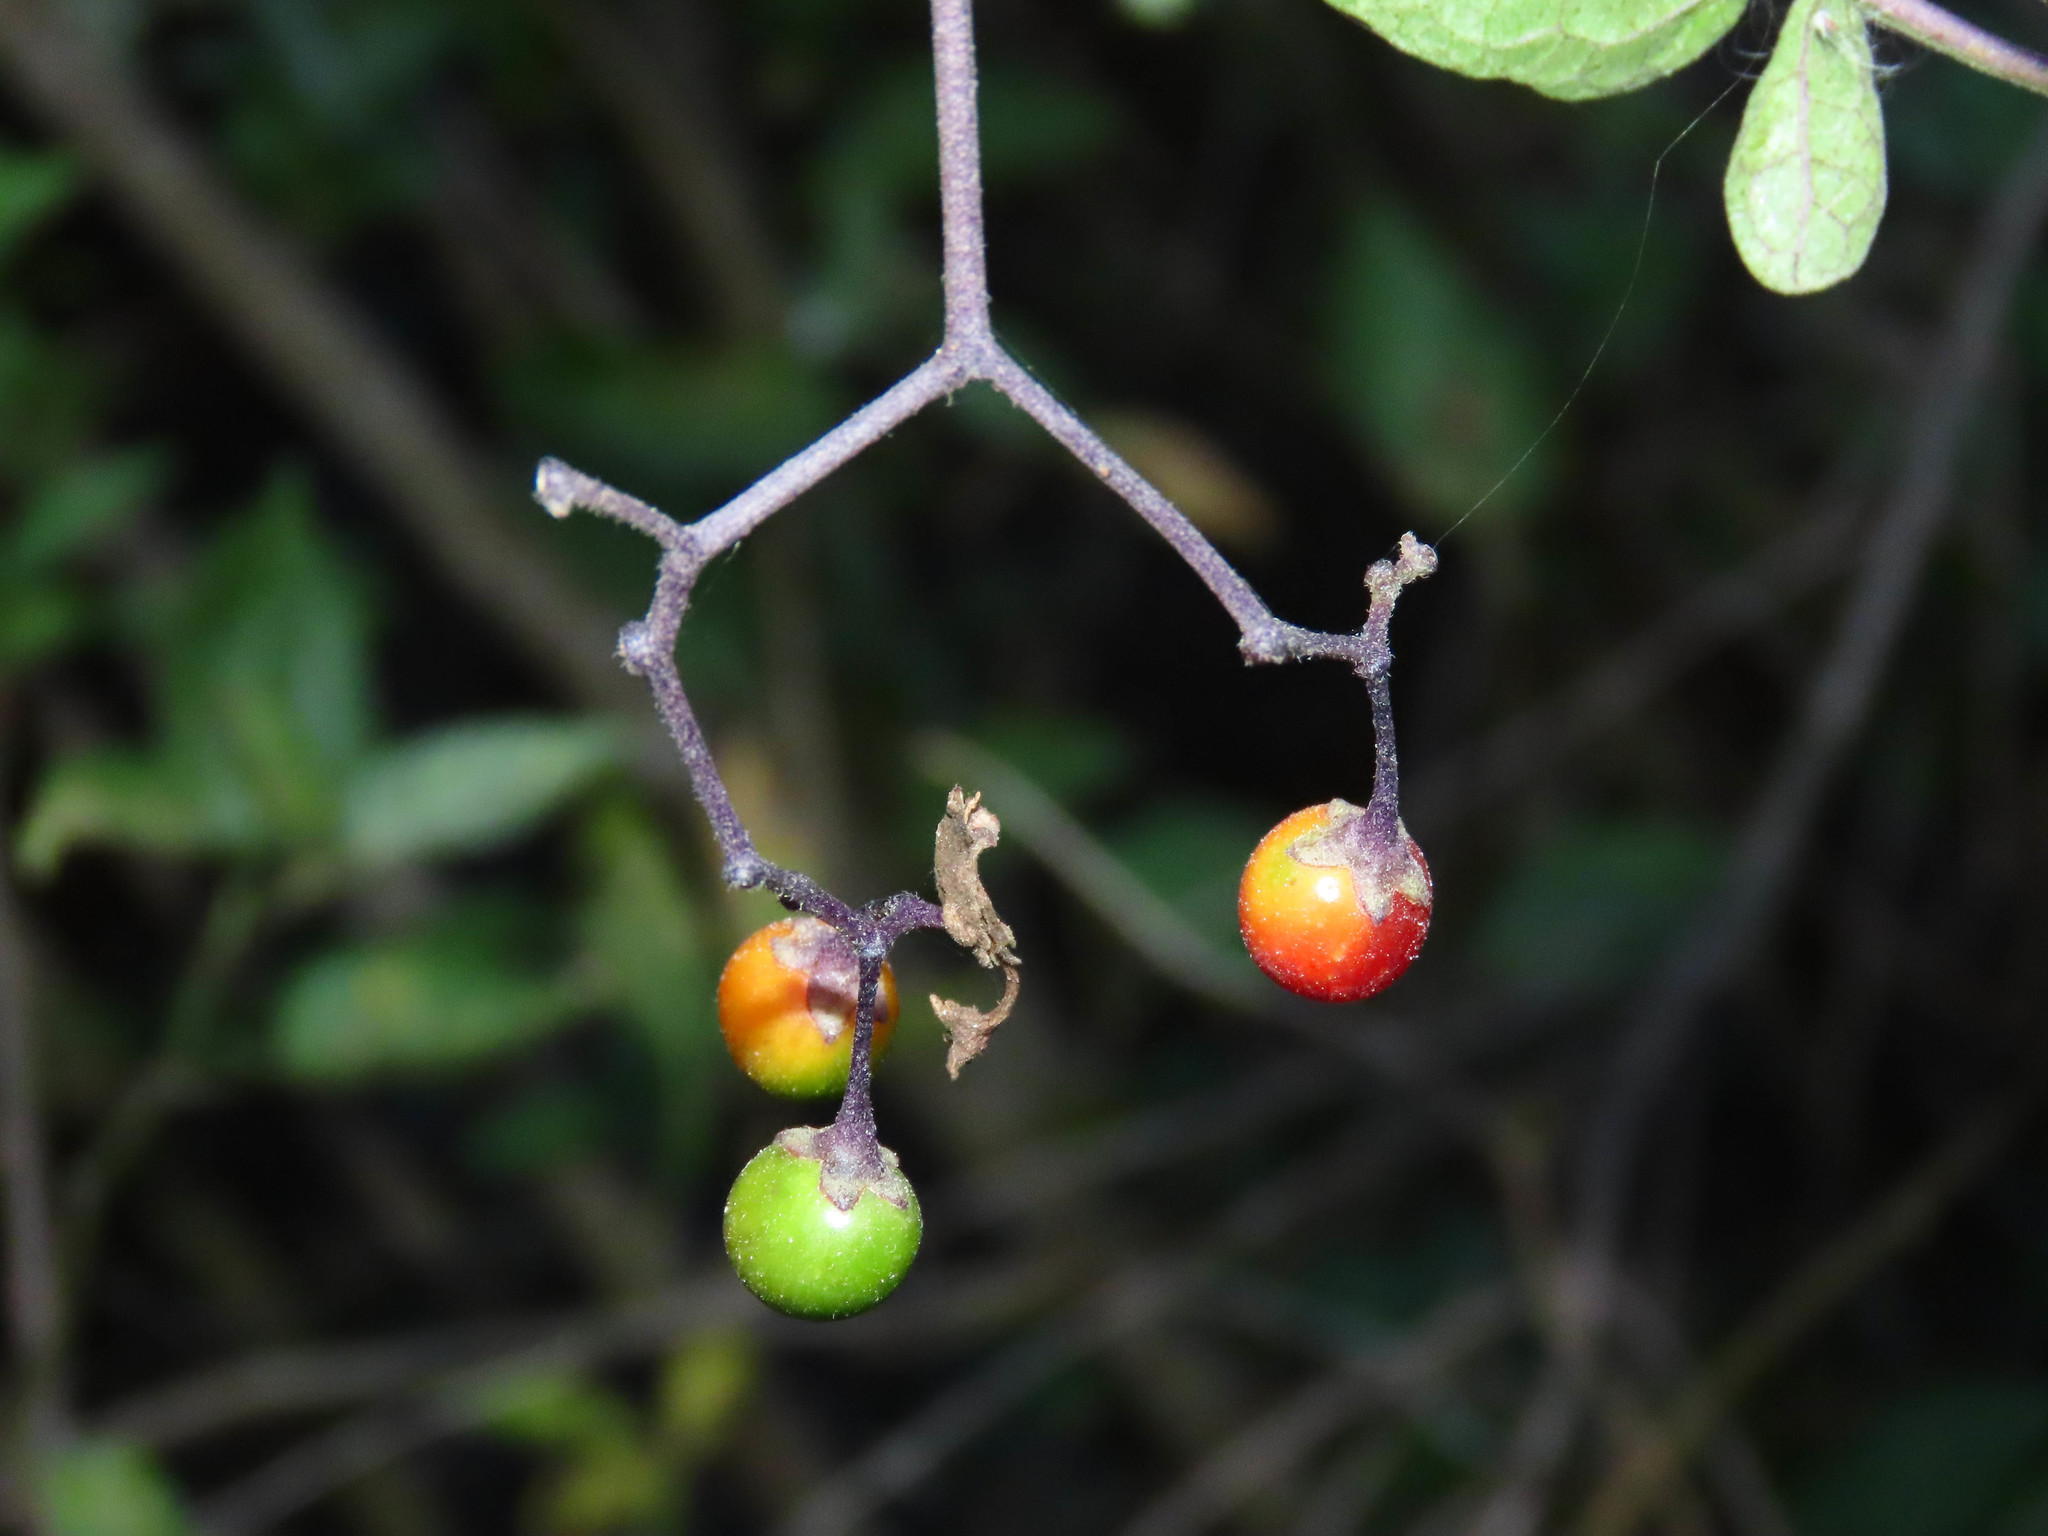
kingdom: Plantae
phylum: Tracheophyta
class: Magnoliopsida
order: Solanales
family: Solanaceae
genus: Solanum
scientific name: Solanum dulcamara
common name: Climbing nightshade
